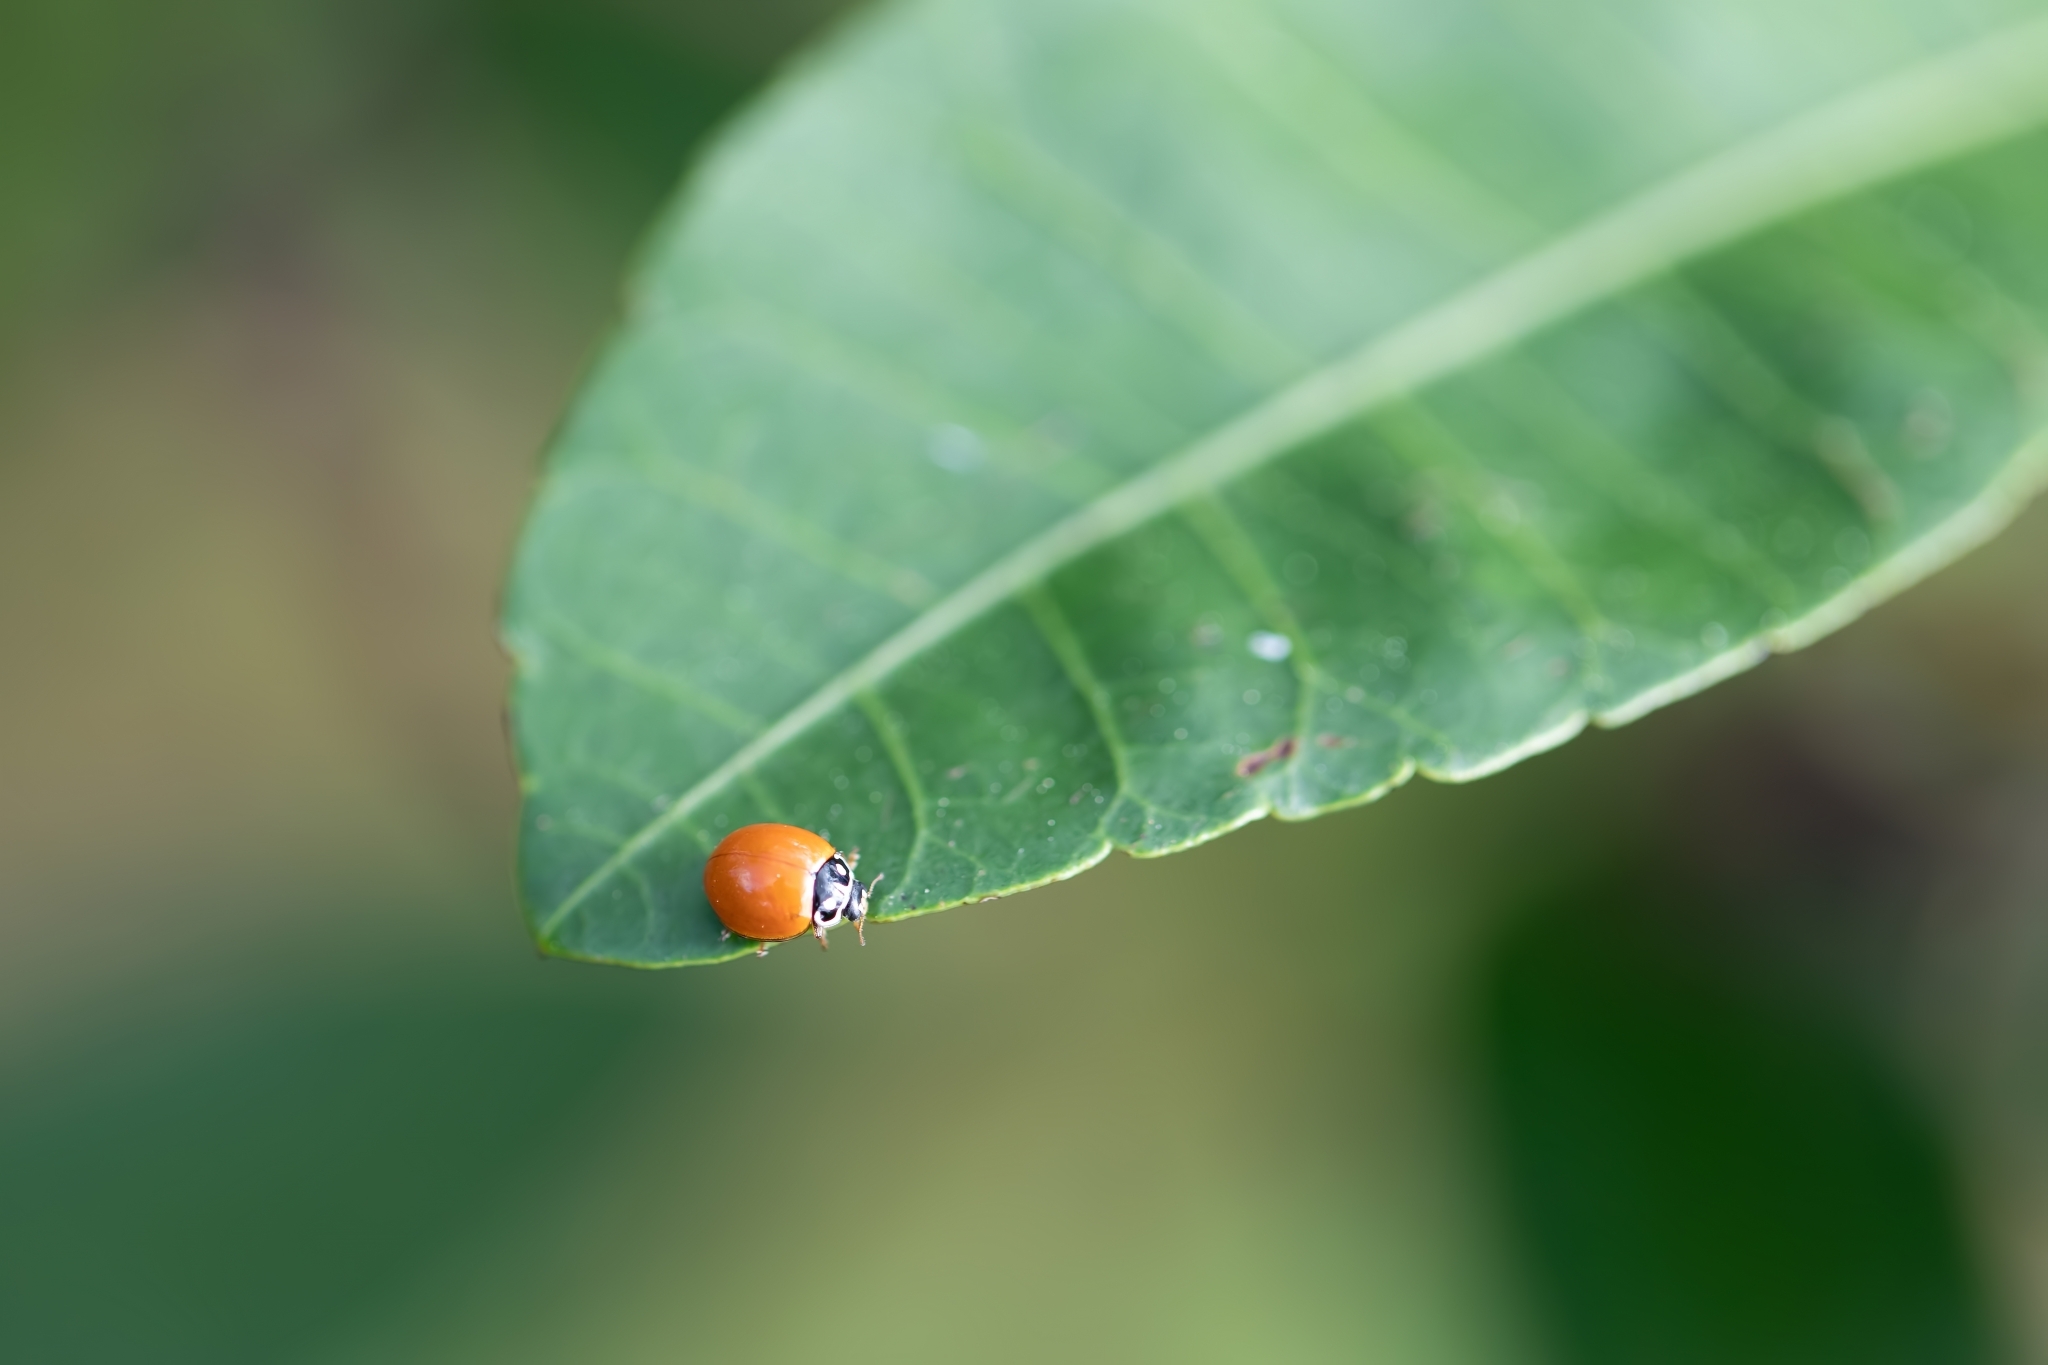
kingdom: Animalia
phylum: Arthropoda
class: Insecta
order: Coleoptera
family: Coccinellidae
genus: Cycloneda
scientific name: Cycloneda sanguinea
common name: Ladybird beetle
